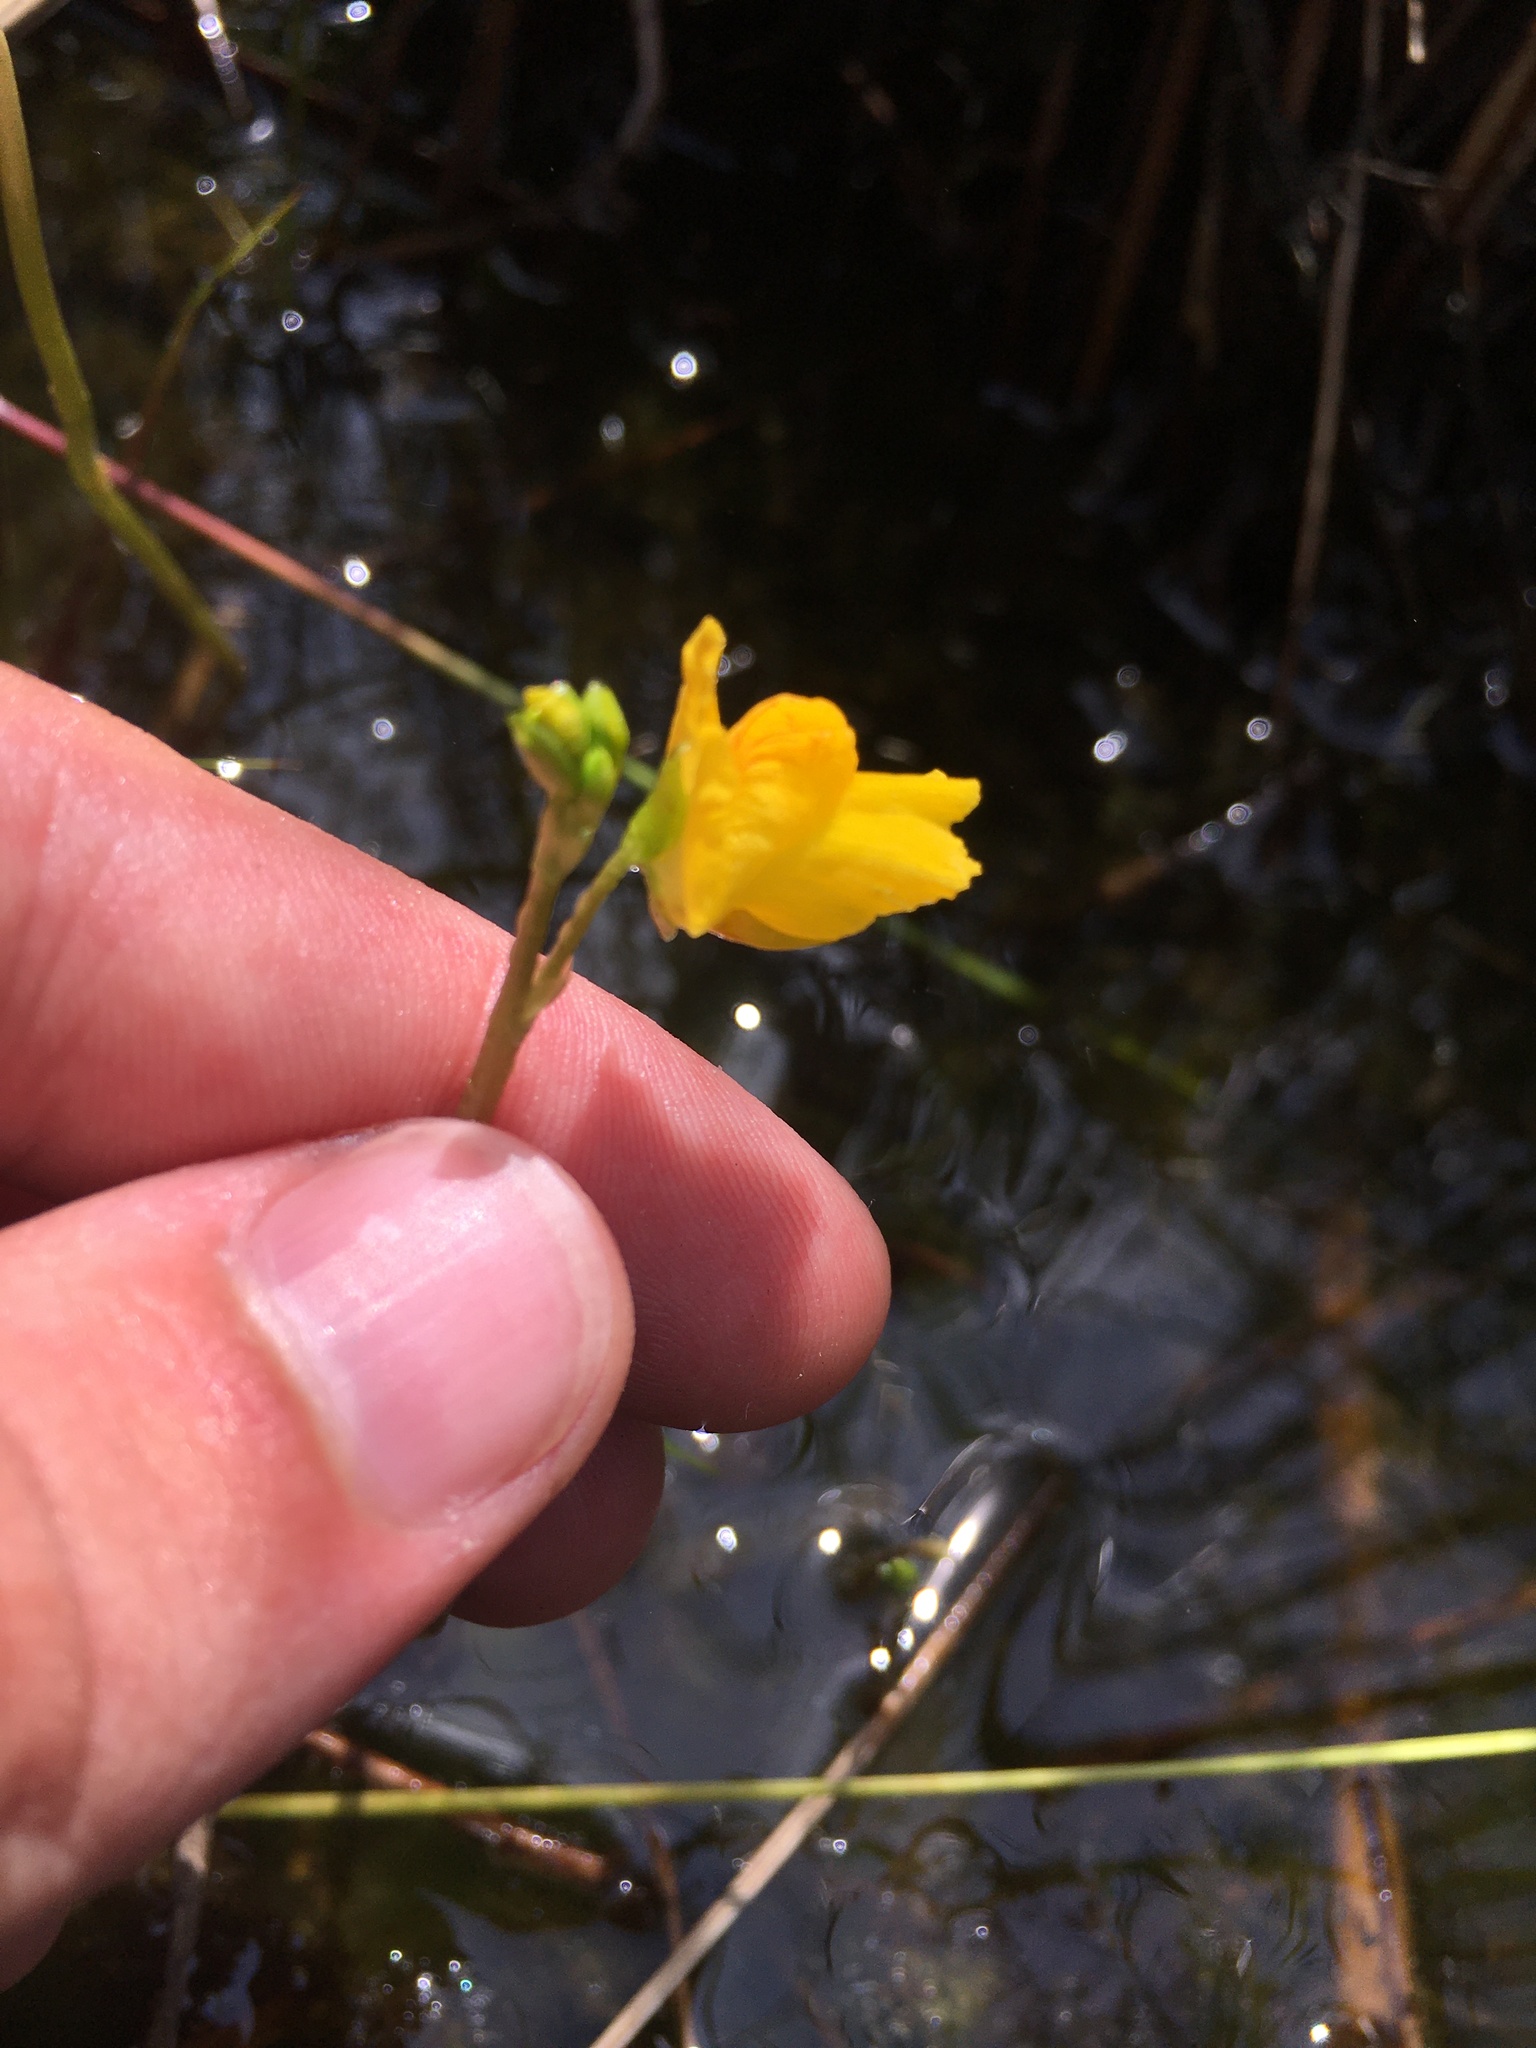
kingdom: Plantae
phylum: Tracheophyta
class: Magnoliopsida
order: Lamiales
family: Lentibulariaceae
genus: Utricularia
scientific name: Utricularia macrorhiza
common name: Common bladderwort
